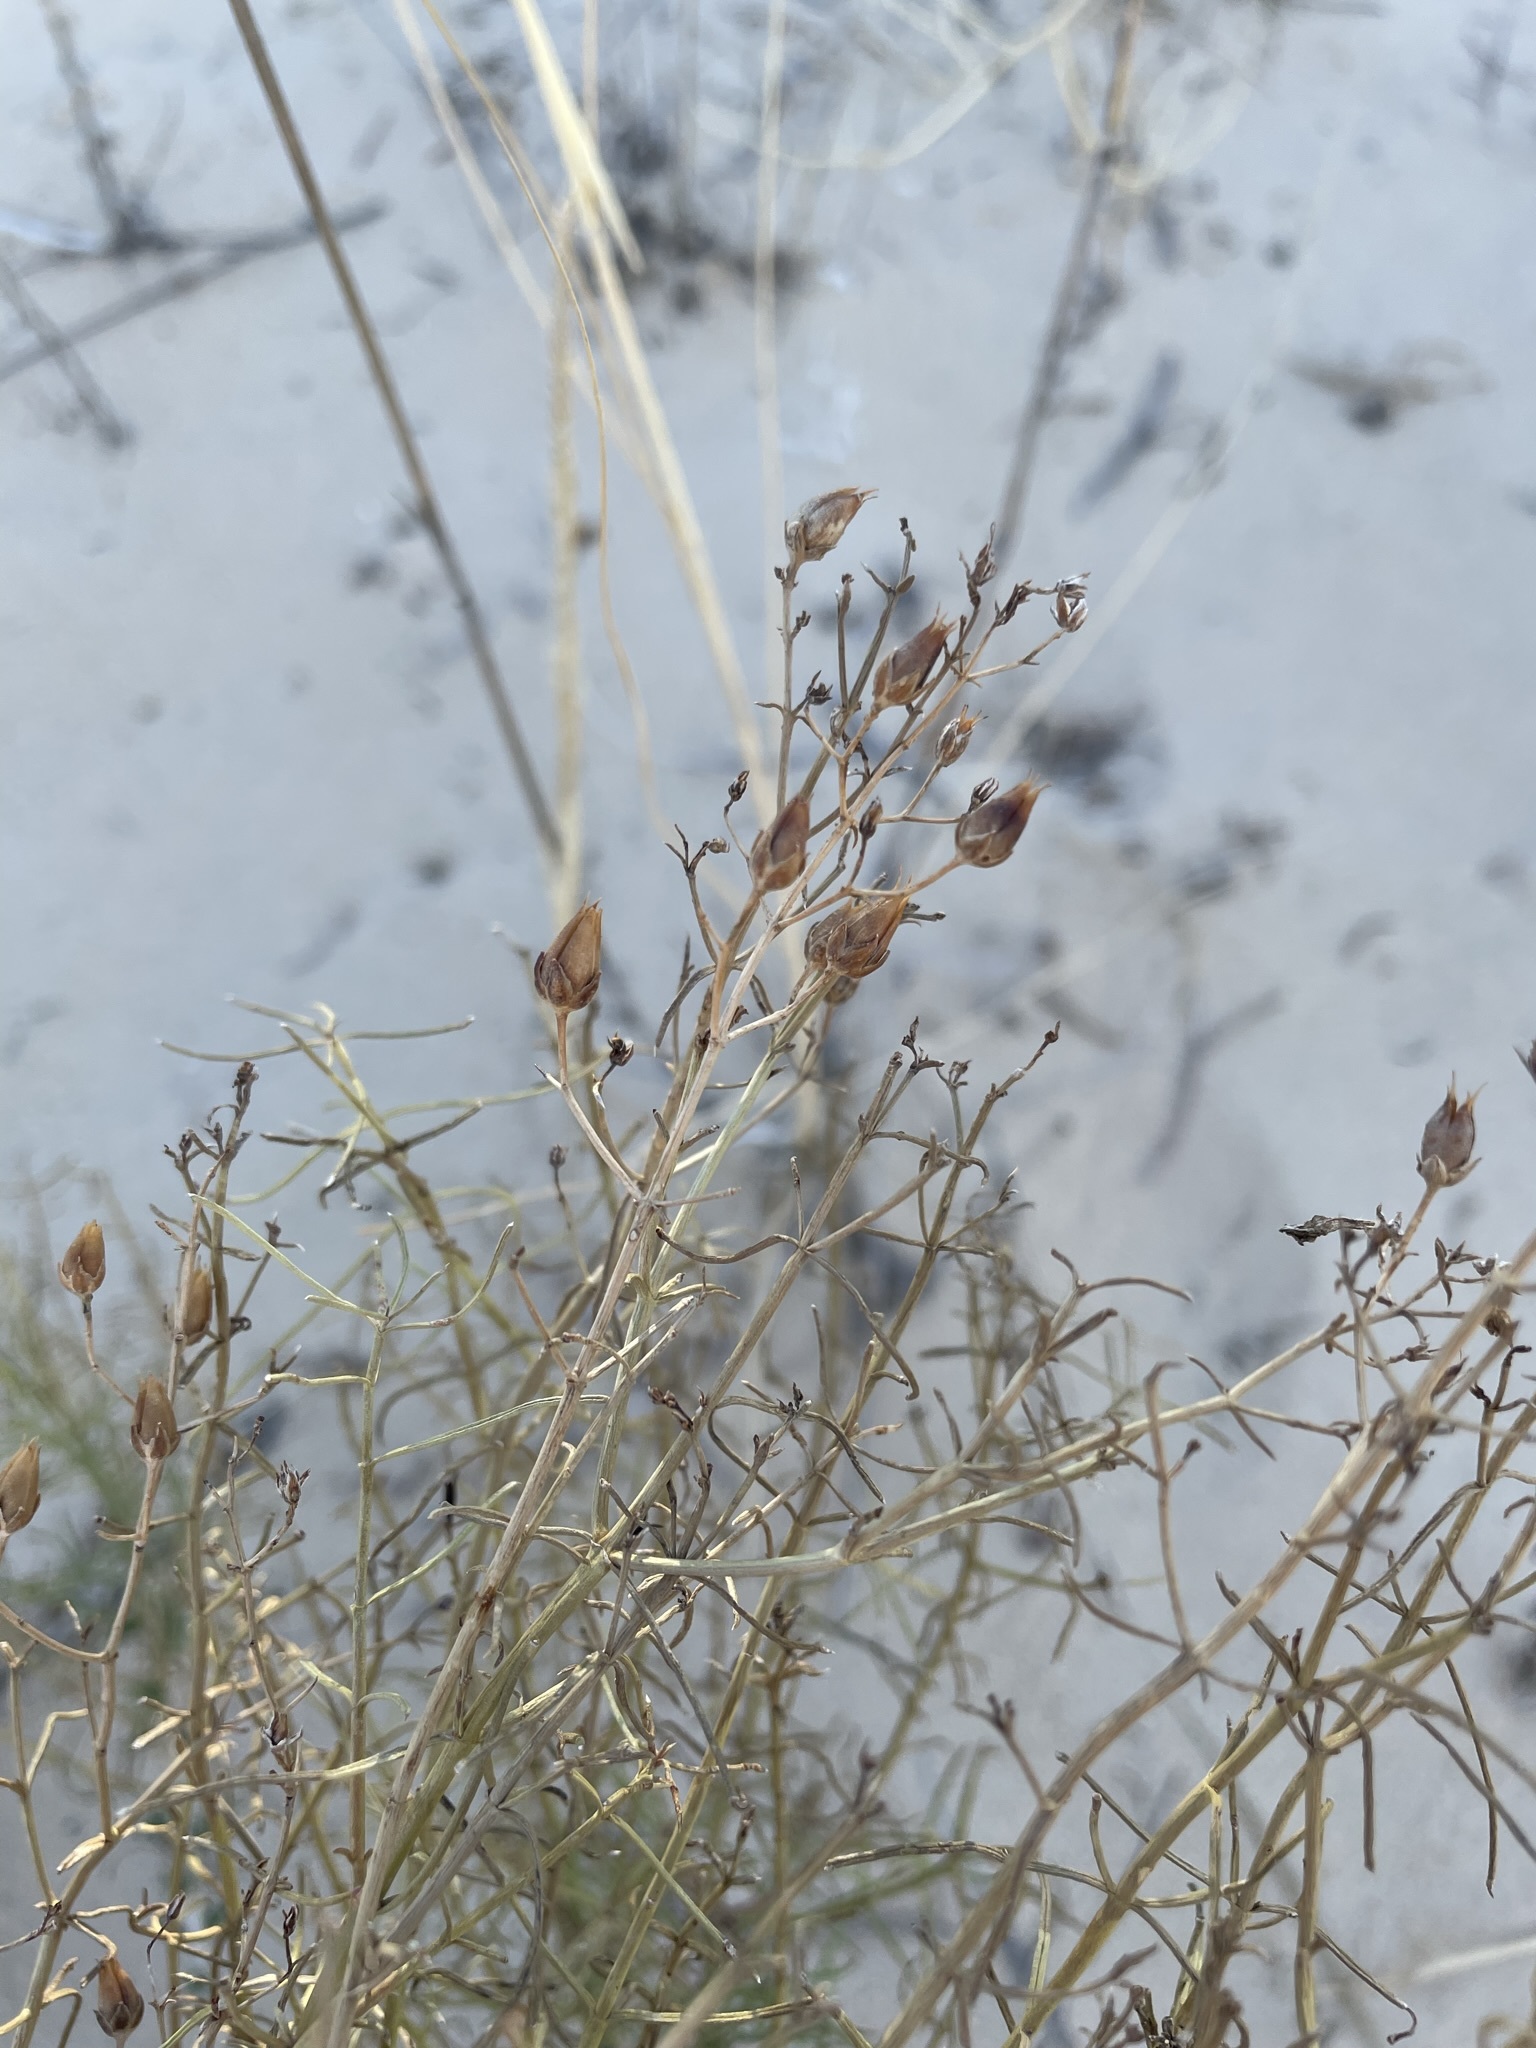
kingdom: Plantae
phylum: Tracheophyta
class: Magnoliopsida
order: Lamiales
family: Plantaginaceae
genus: Penstemon
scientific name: Penstemon ambiguus
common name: Bush penstemon
